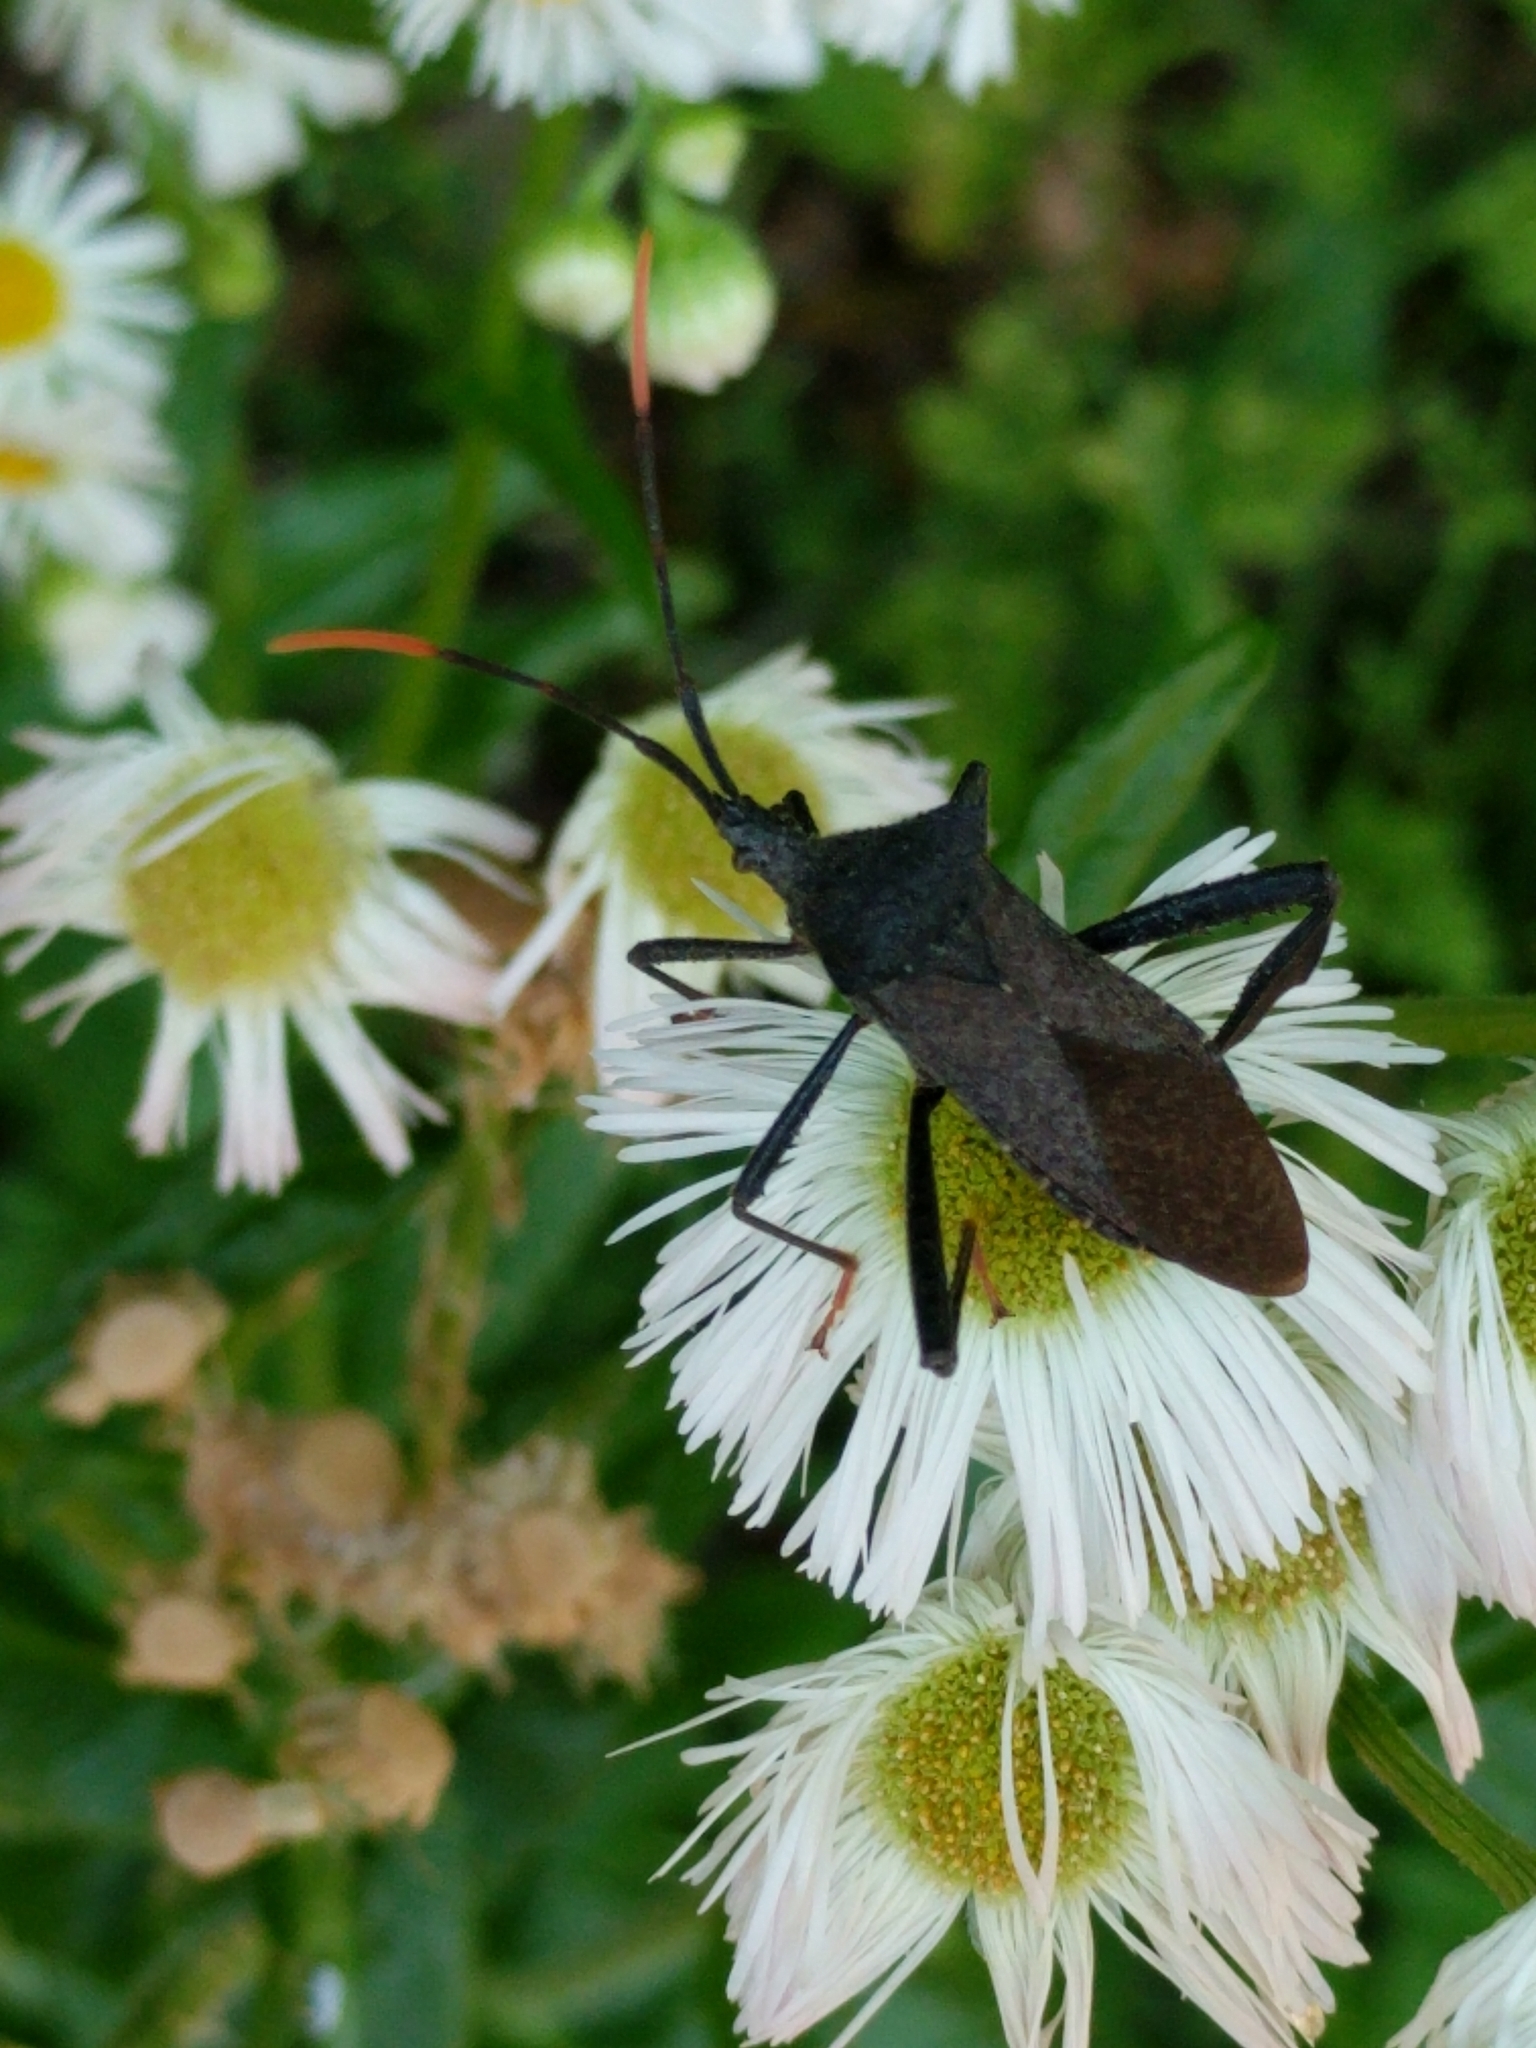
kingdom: Animalia
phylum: Arthropoda
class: Insecta
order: Hemiptera
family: Coreidae
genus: Acanthocephala
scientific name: Acanthocephala terminalis
